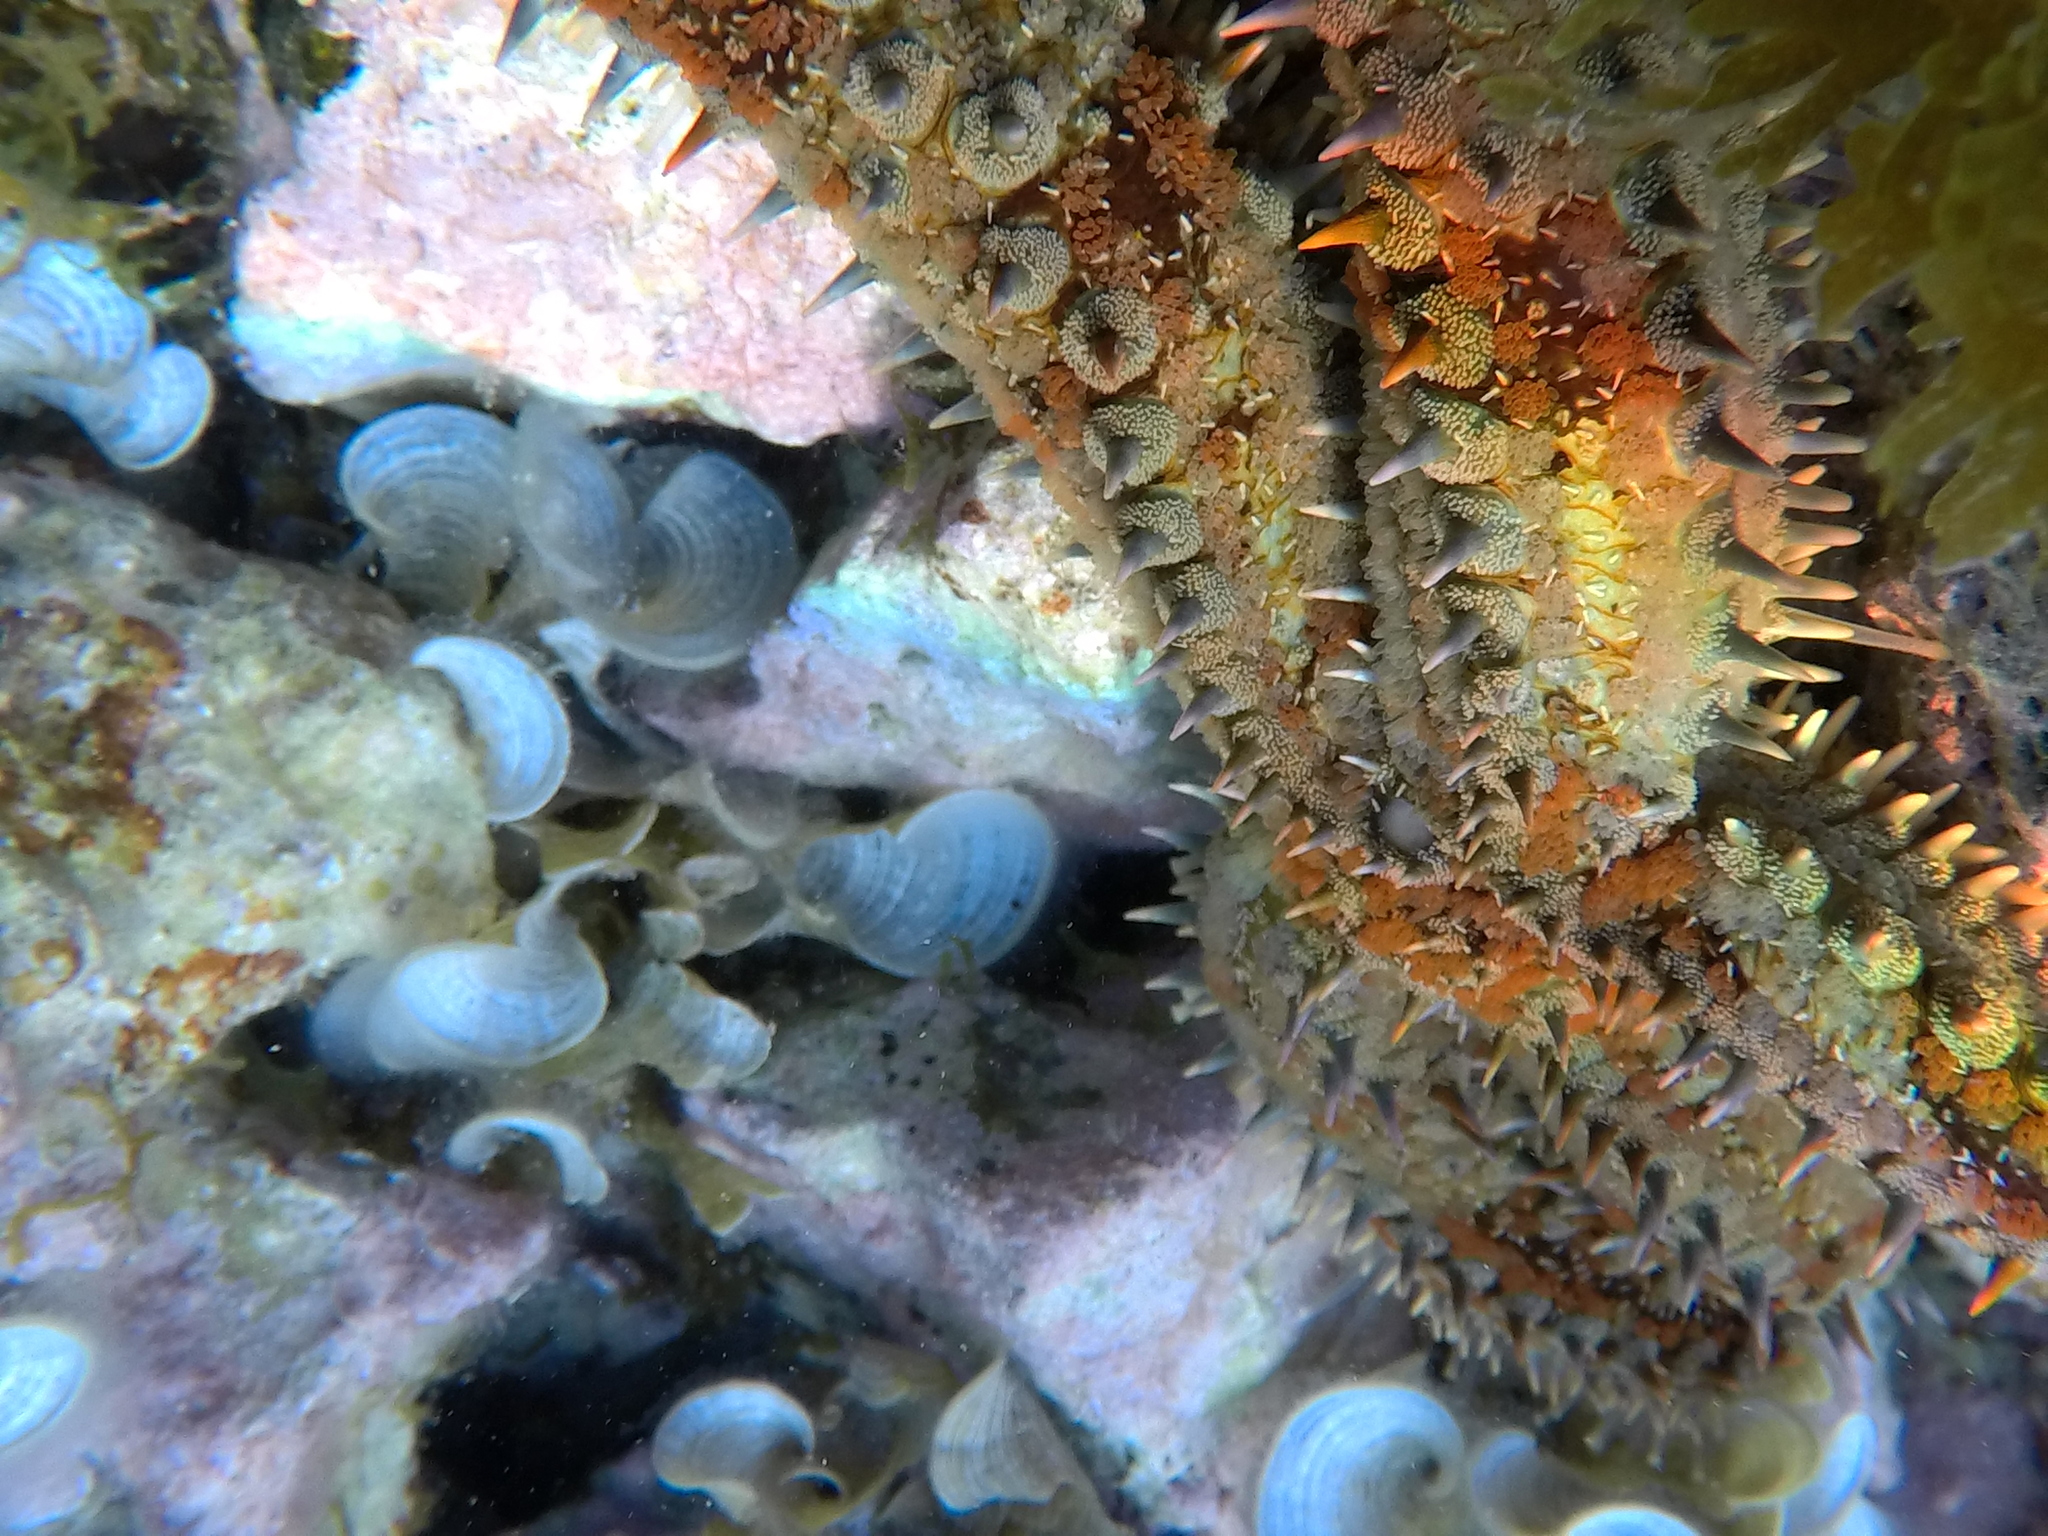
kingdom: Animalia
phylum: Echinodermata
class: Asteroidea
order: Forcipulatida
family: Asteriidae
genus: Marthasterias
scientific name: Marthasterias glacialis
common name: Spiny starfish
